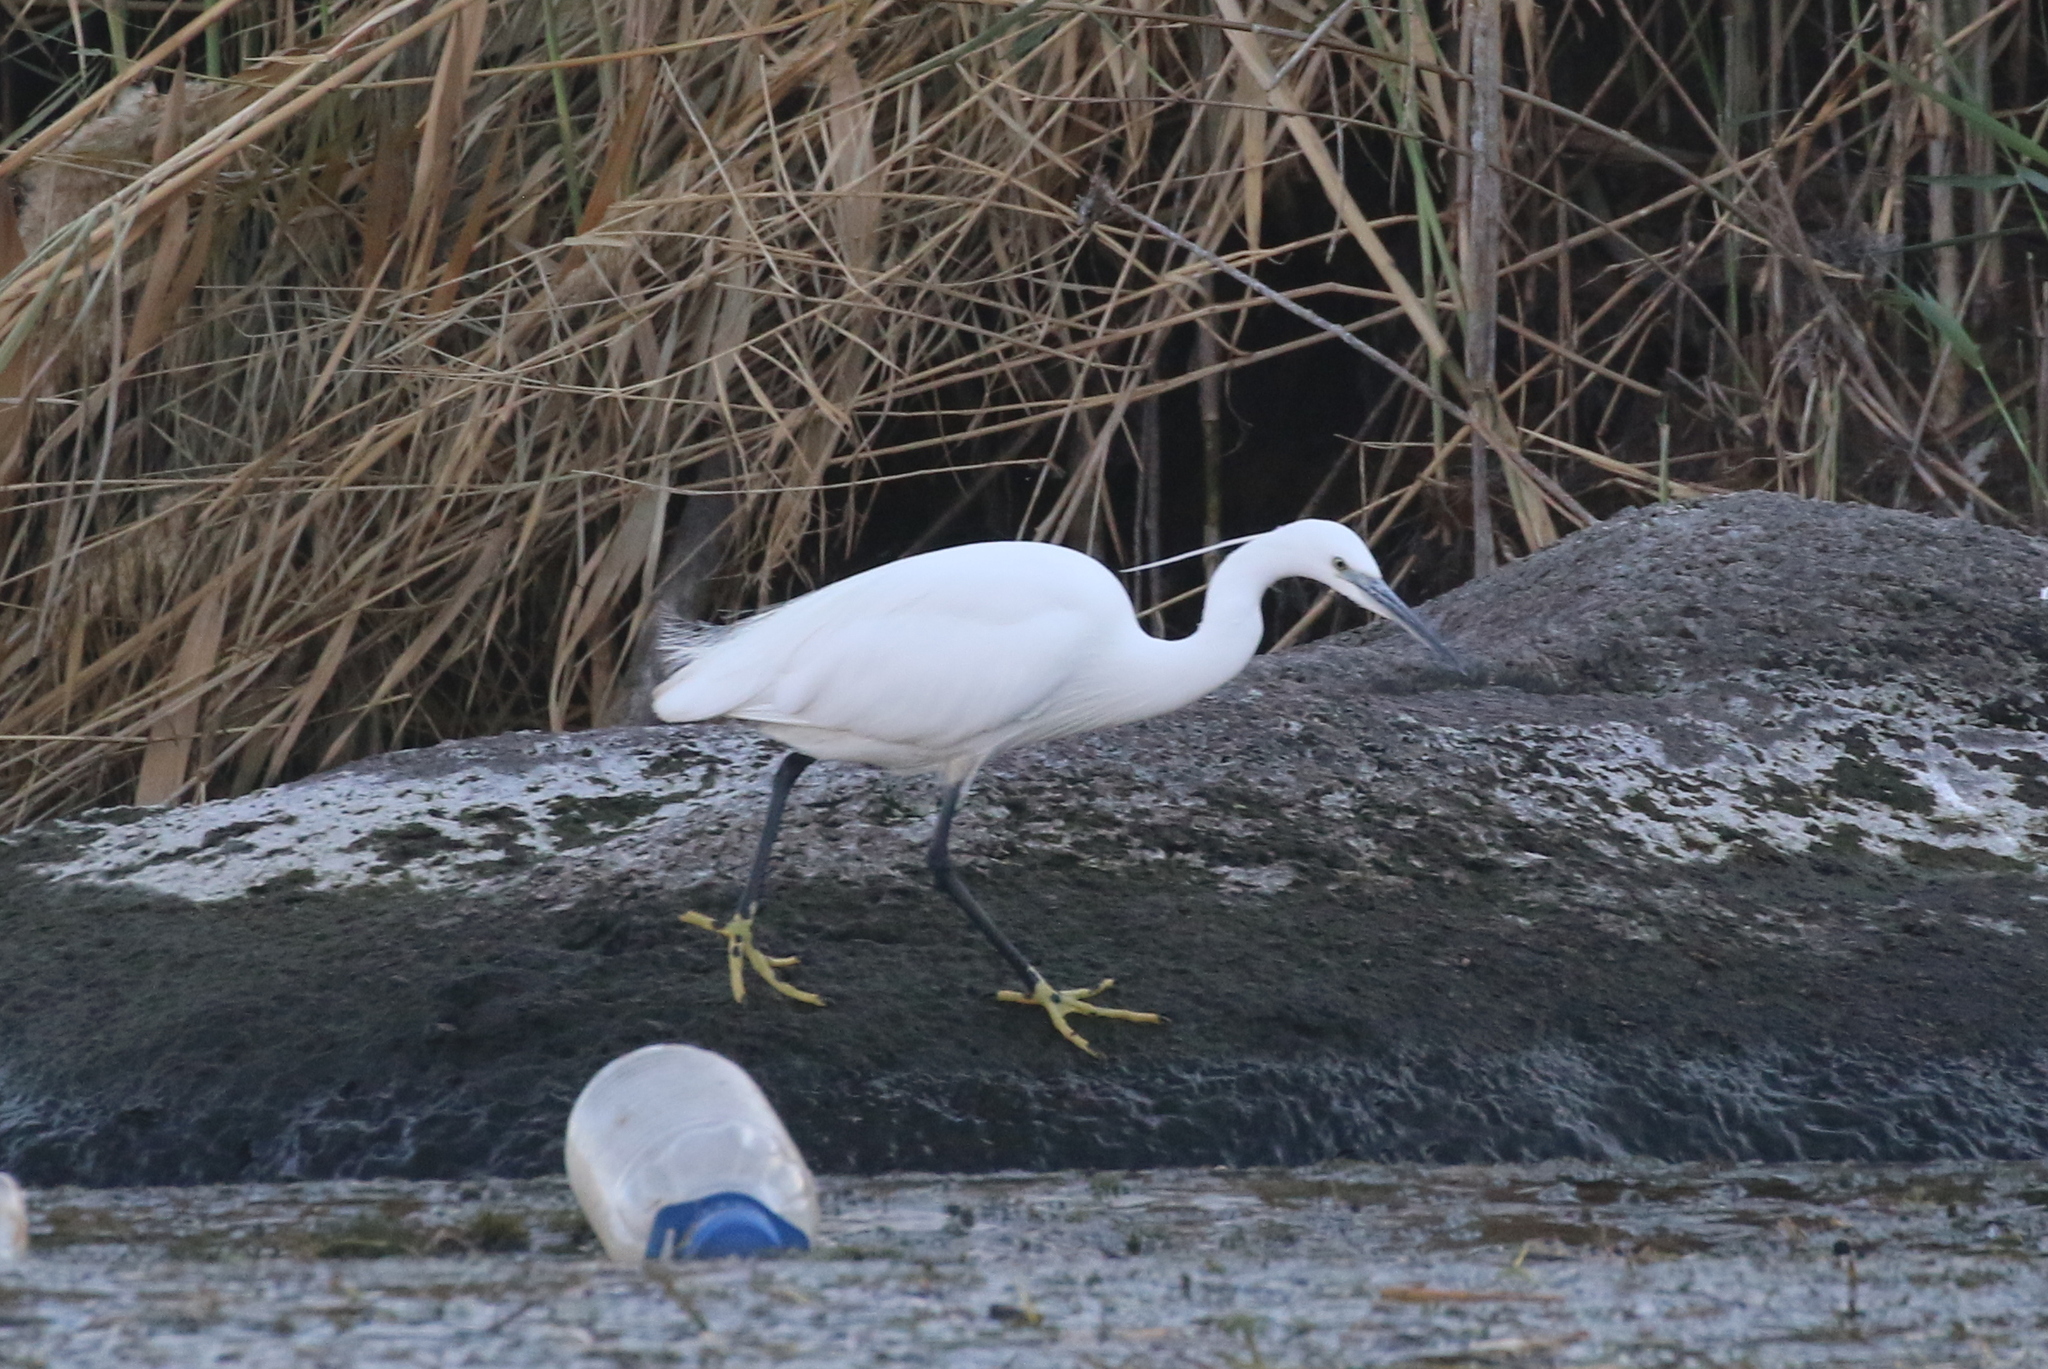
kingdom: Animalia
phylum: Chordata
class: Aves
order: Pelecaniformes
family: Ardeidae
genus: Egretta
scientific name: Egretta garzetta
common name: Little egret
